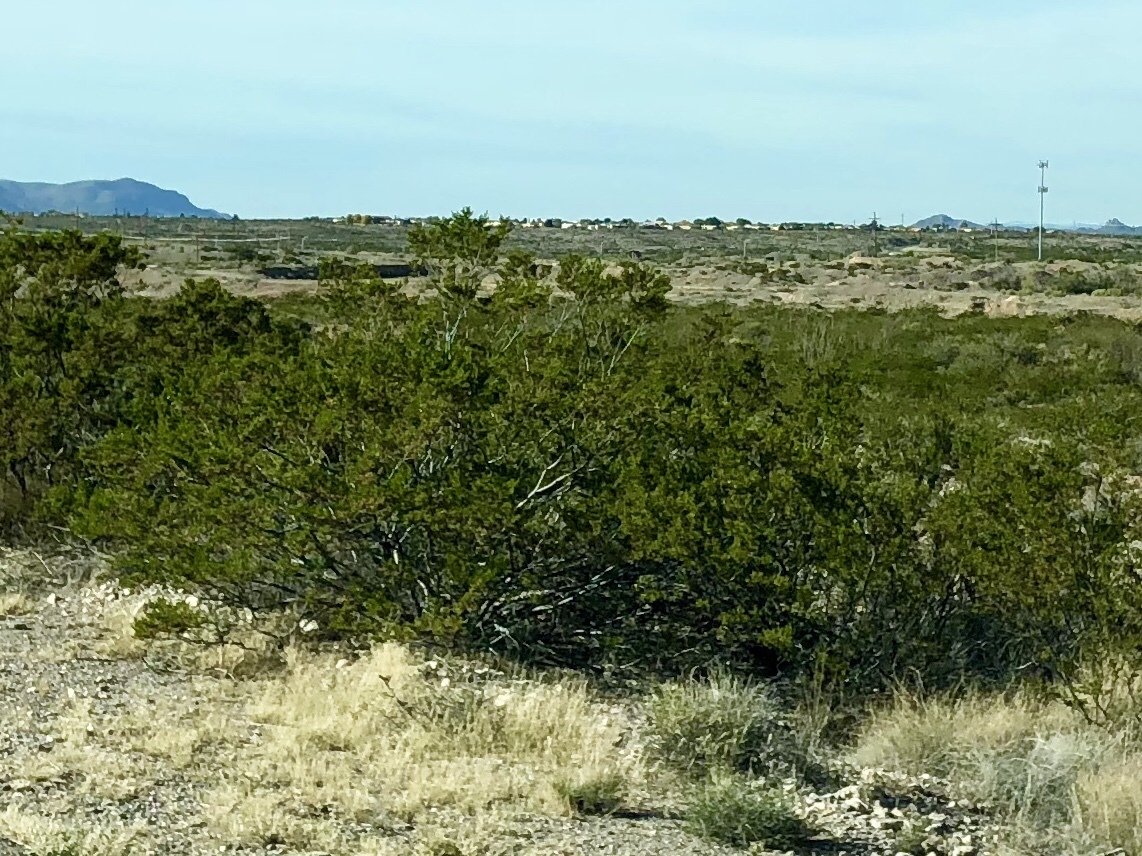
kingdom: Plantae
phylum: Tracheophyta
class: Magnoliopsida
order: Zygophyllales
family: Zygophyllaceae
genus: Larrea
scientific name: Larrea tridentata
